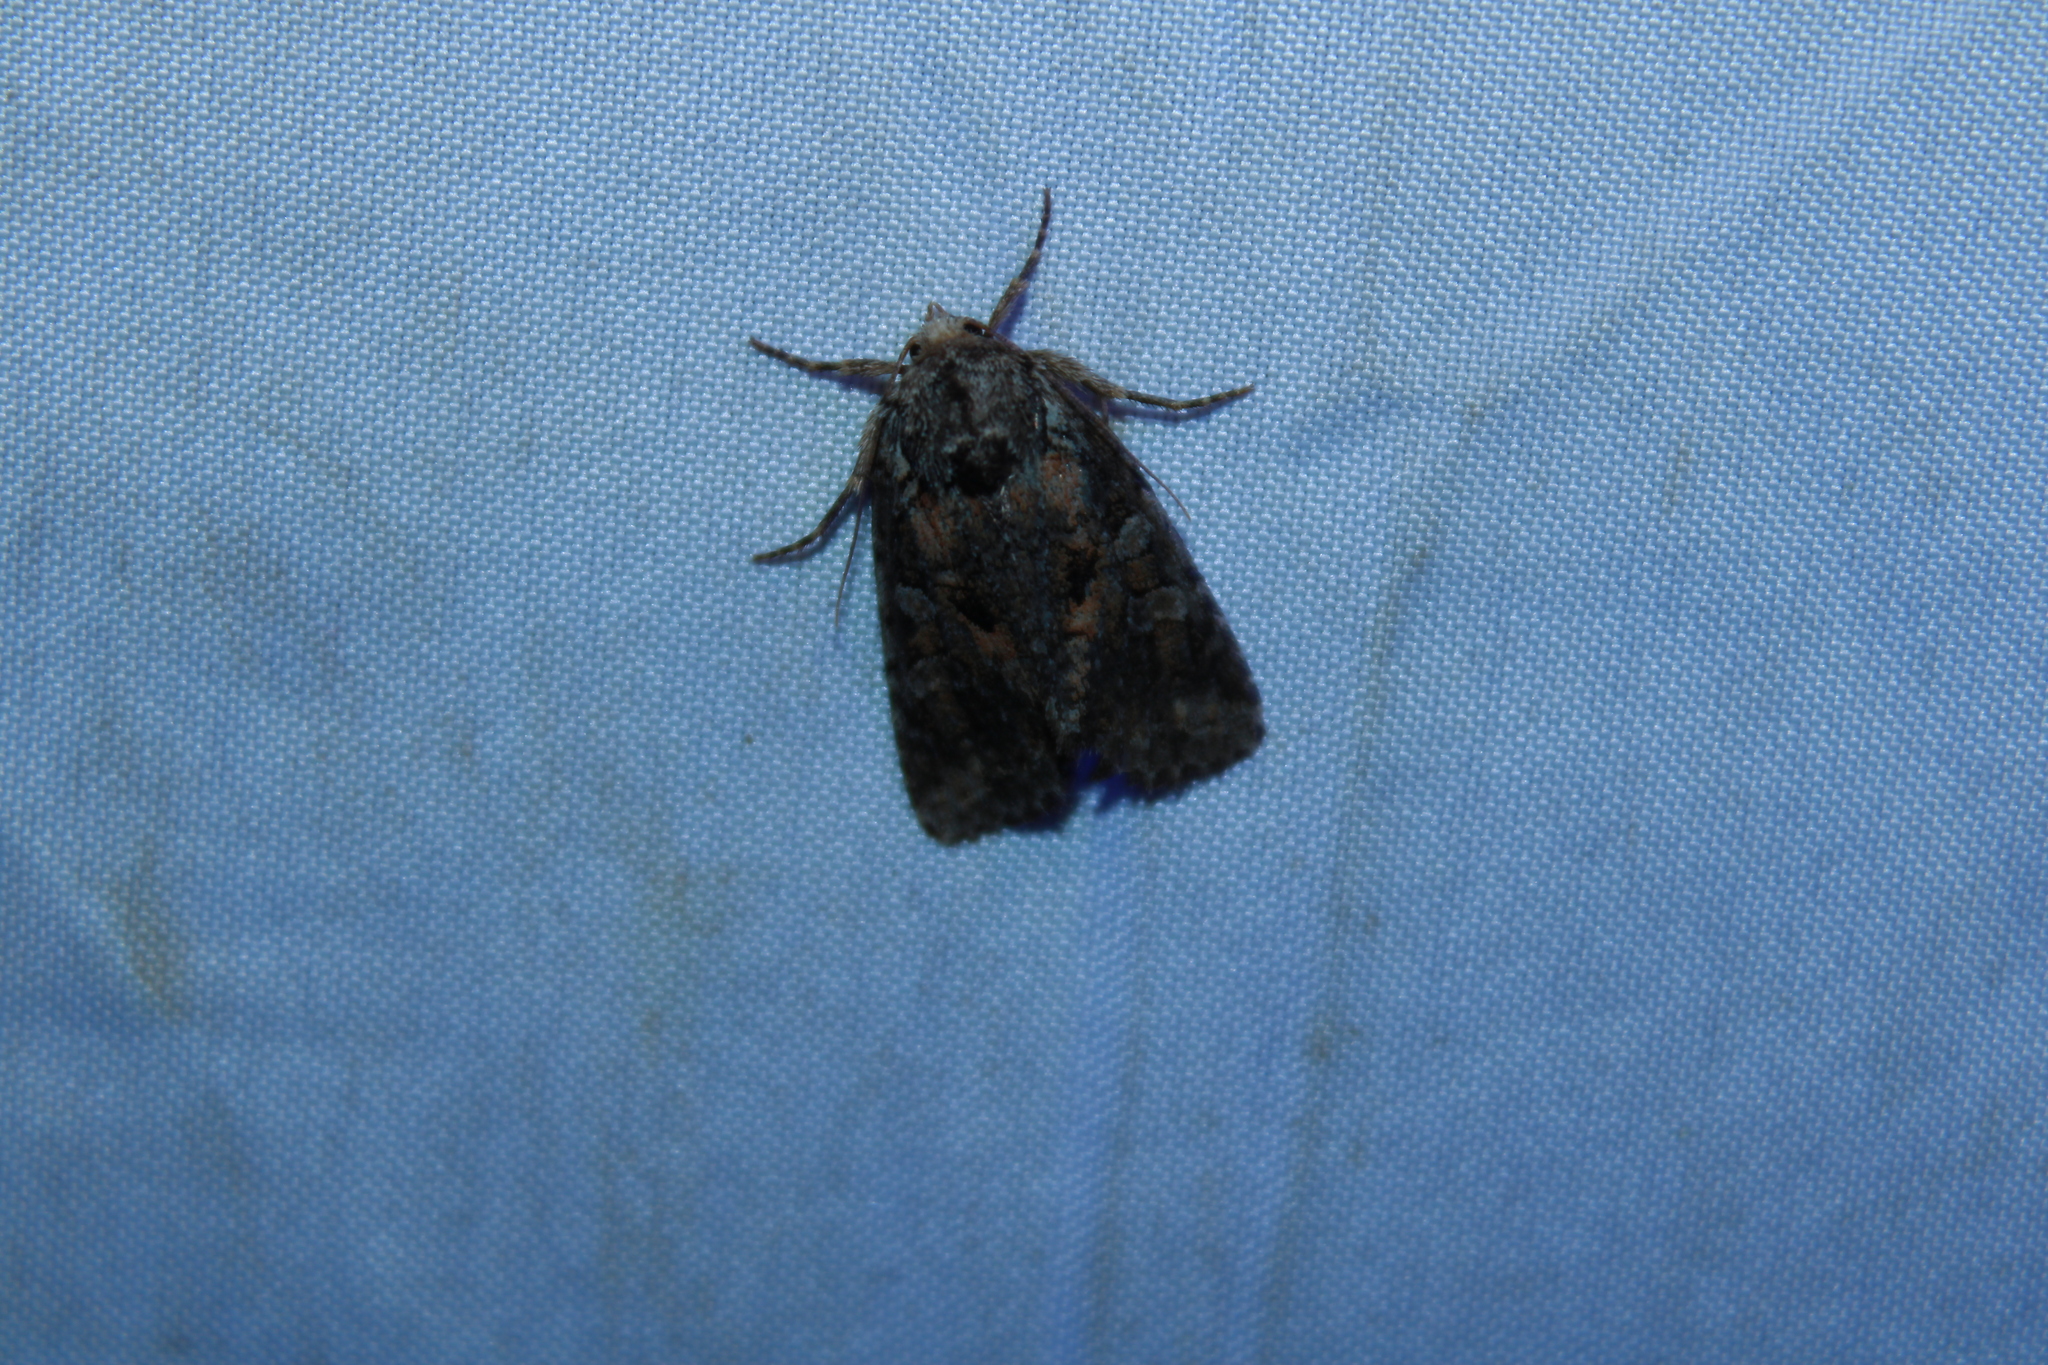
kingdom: Animalia
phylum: Arthropoda
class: Insecta
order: Lepidoptera
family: Noctuidae
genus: Orthodes
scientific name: Orthodes detracta
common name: Disparaged arches moth
